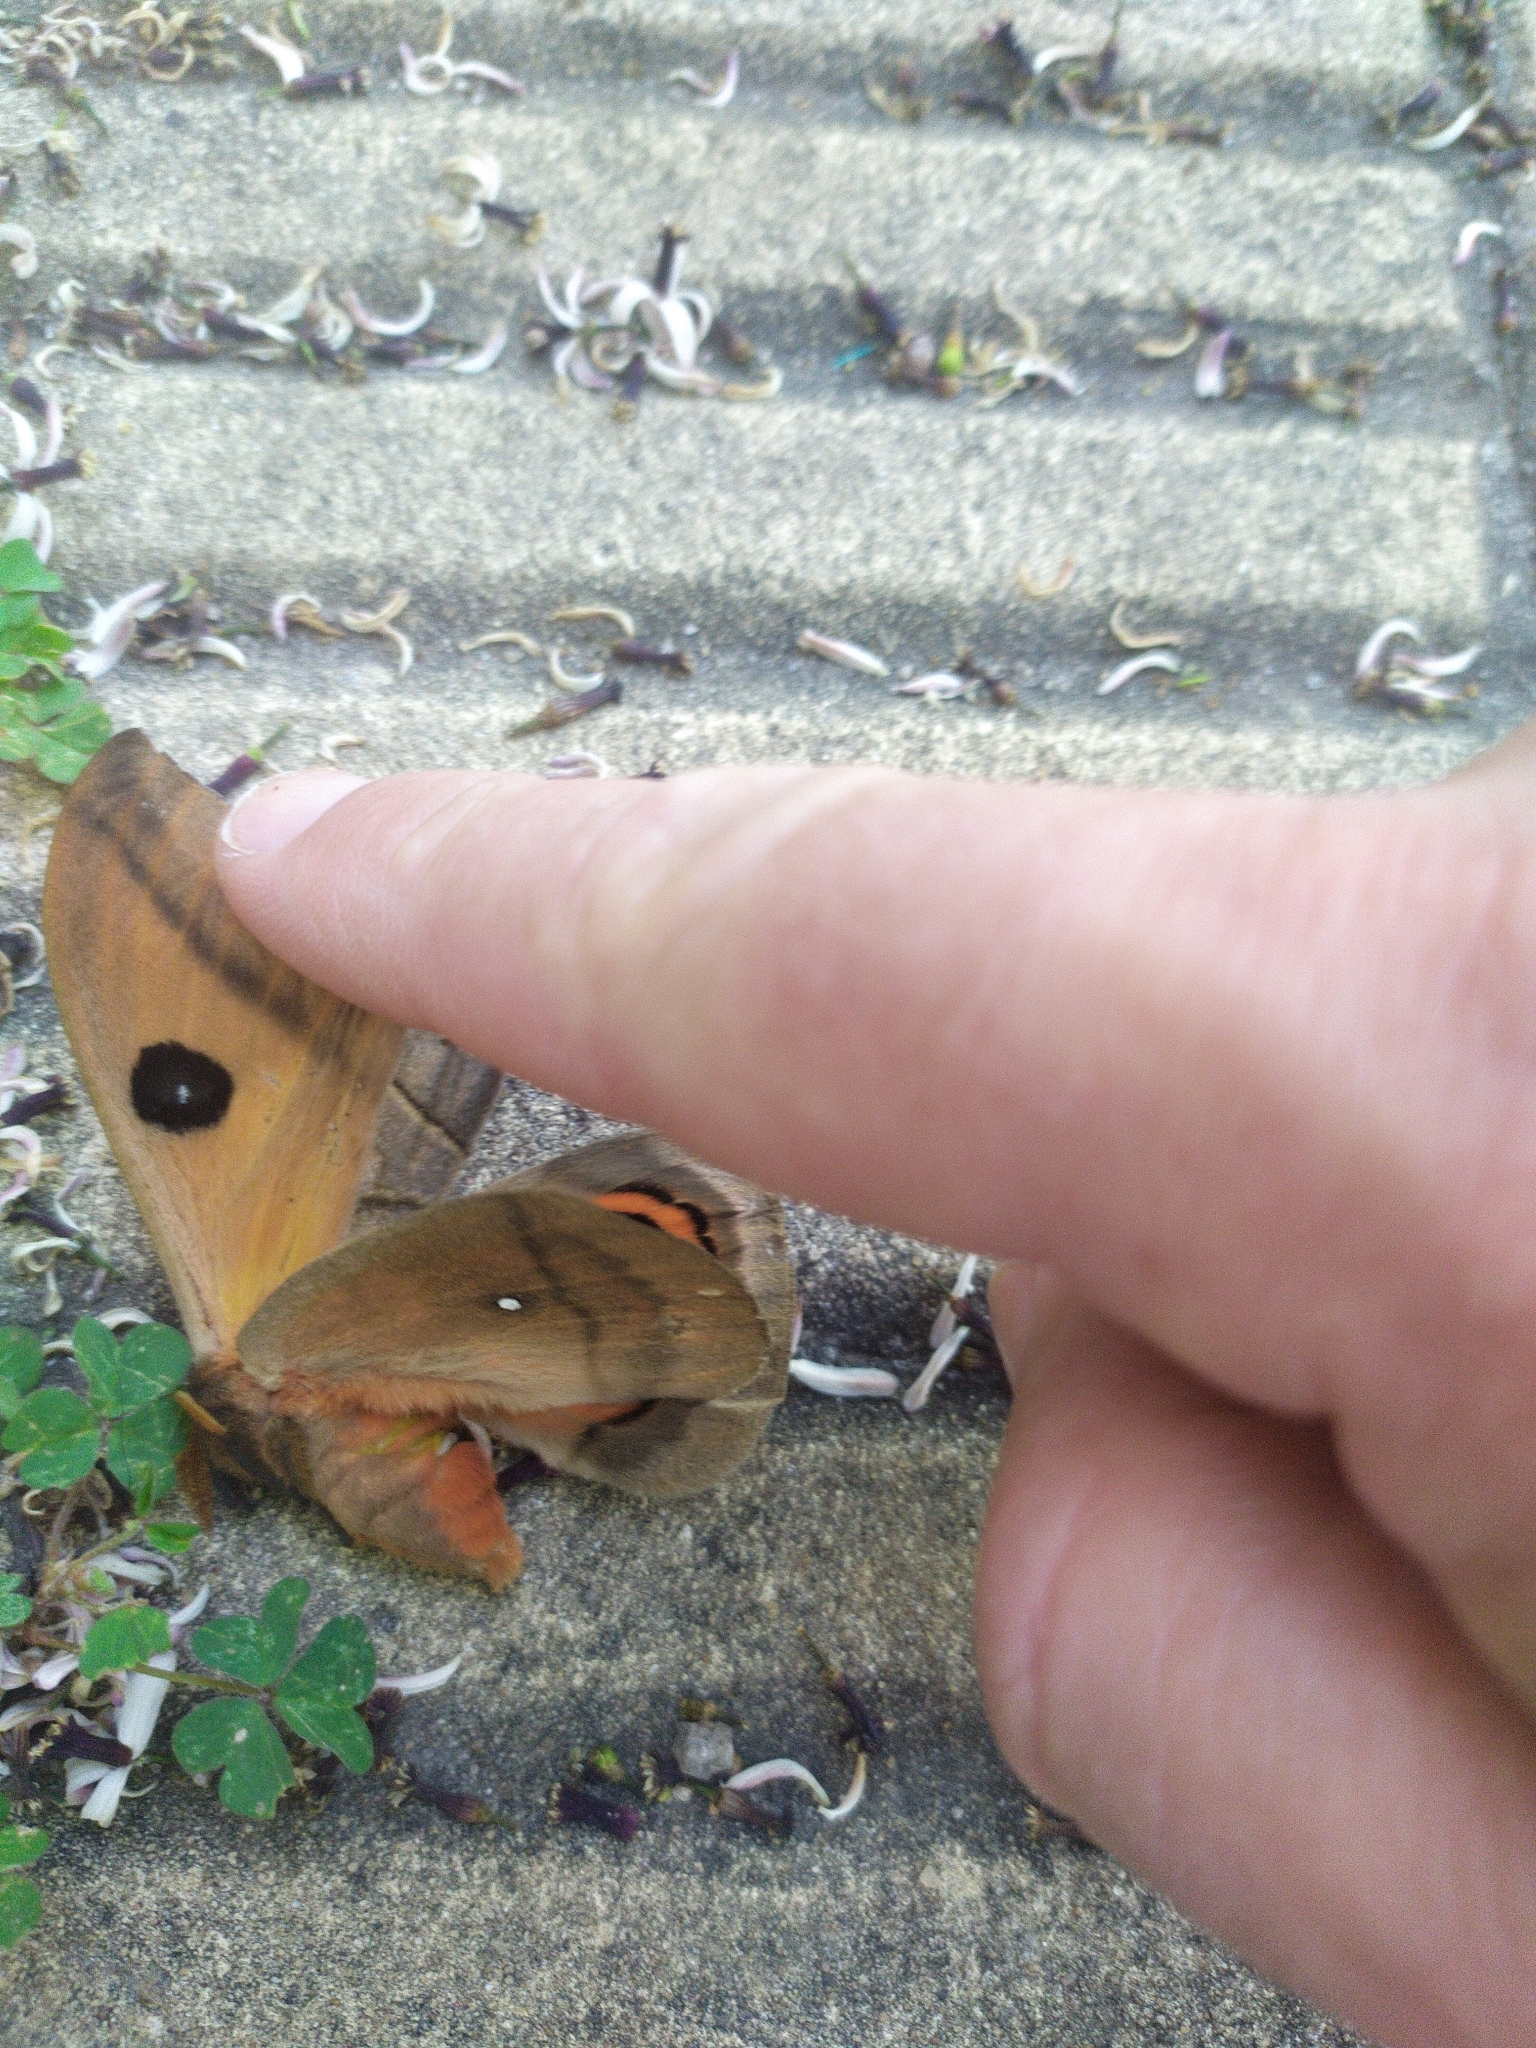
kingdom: Animalia
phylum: Arthropoda
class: Insecta
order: Lepidoptera
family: Saturniidae
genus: Automeris
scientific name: Automeris coresus
